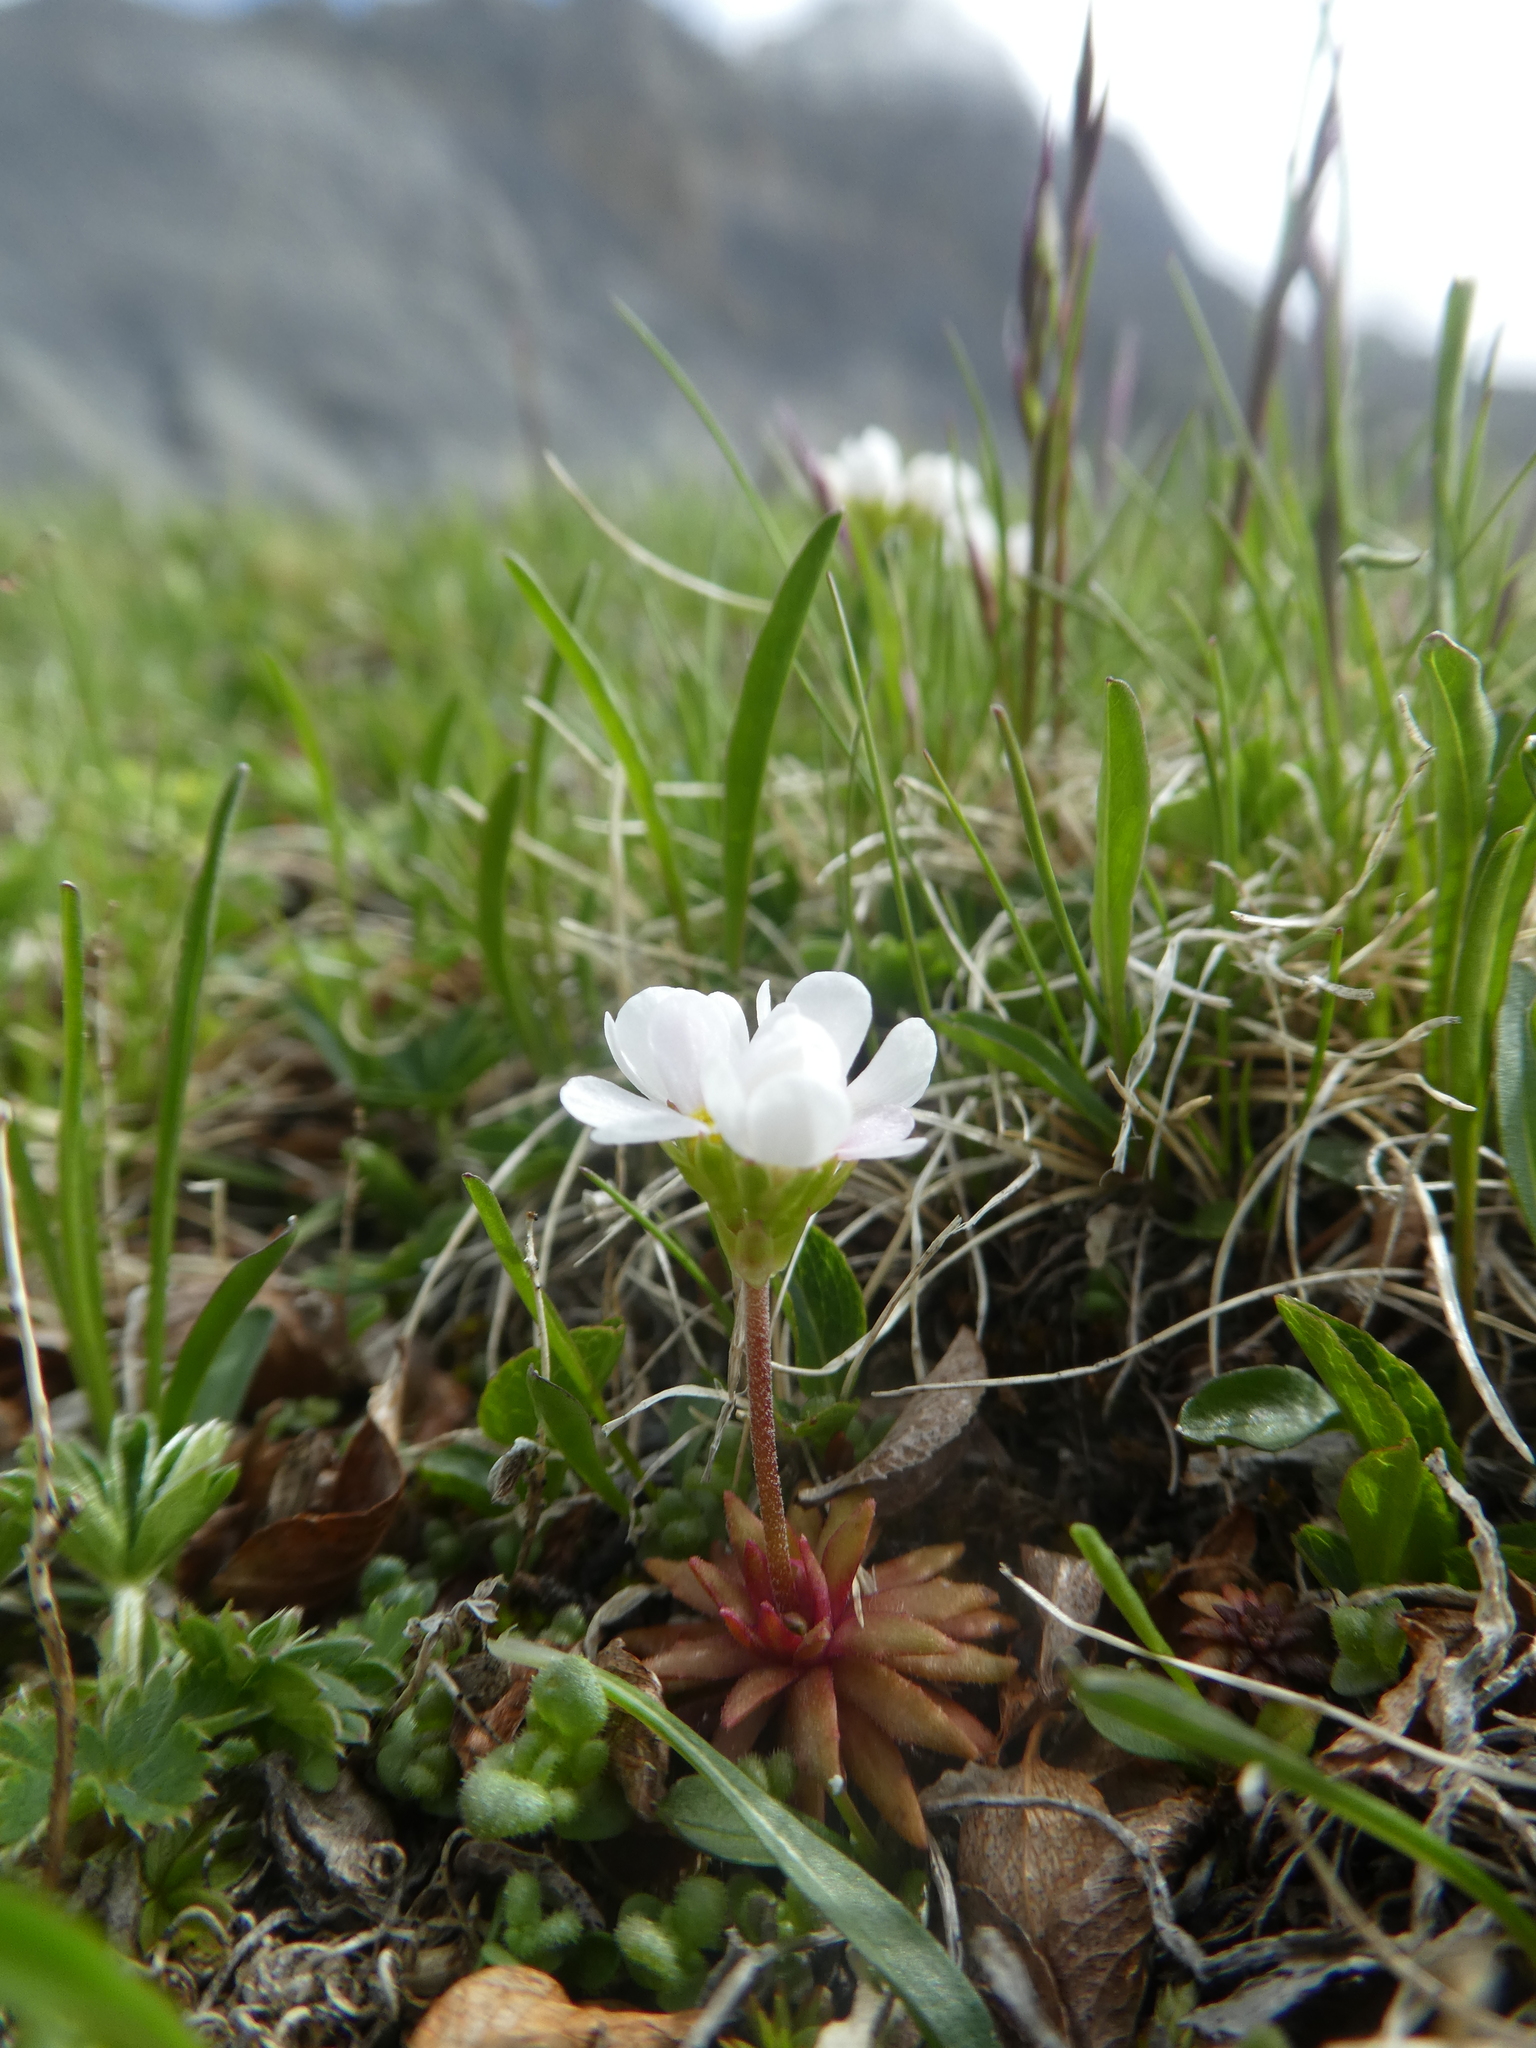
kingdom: Plantae
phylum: Tracheophyta
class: Magnoliopsida
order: Ericales
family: Primulaceae
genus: Androsace
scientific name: Androsace adfinis
